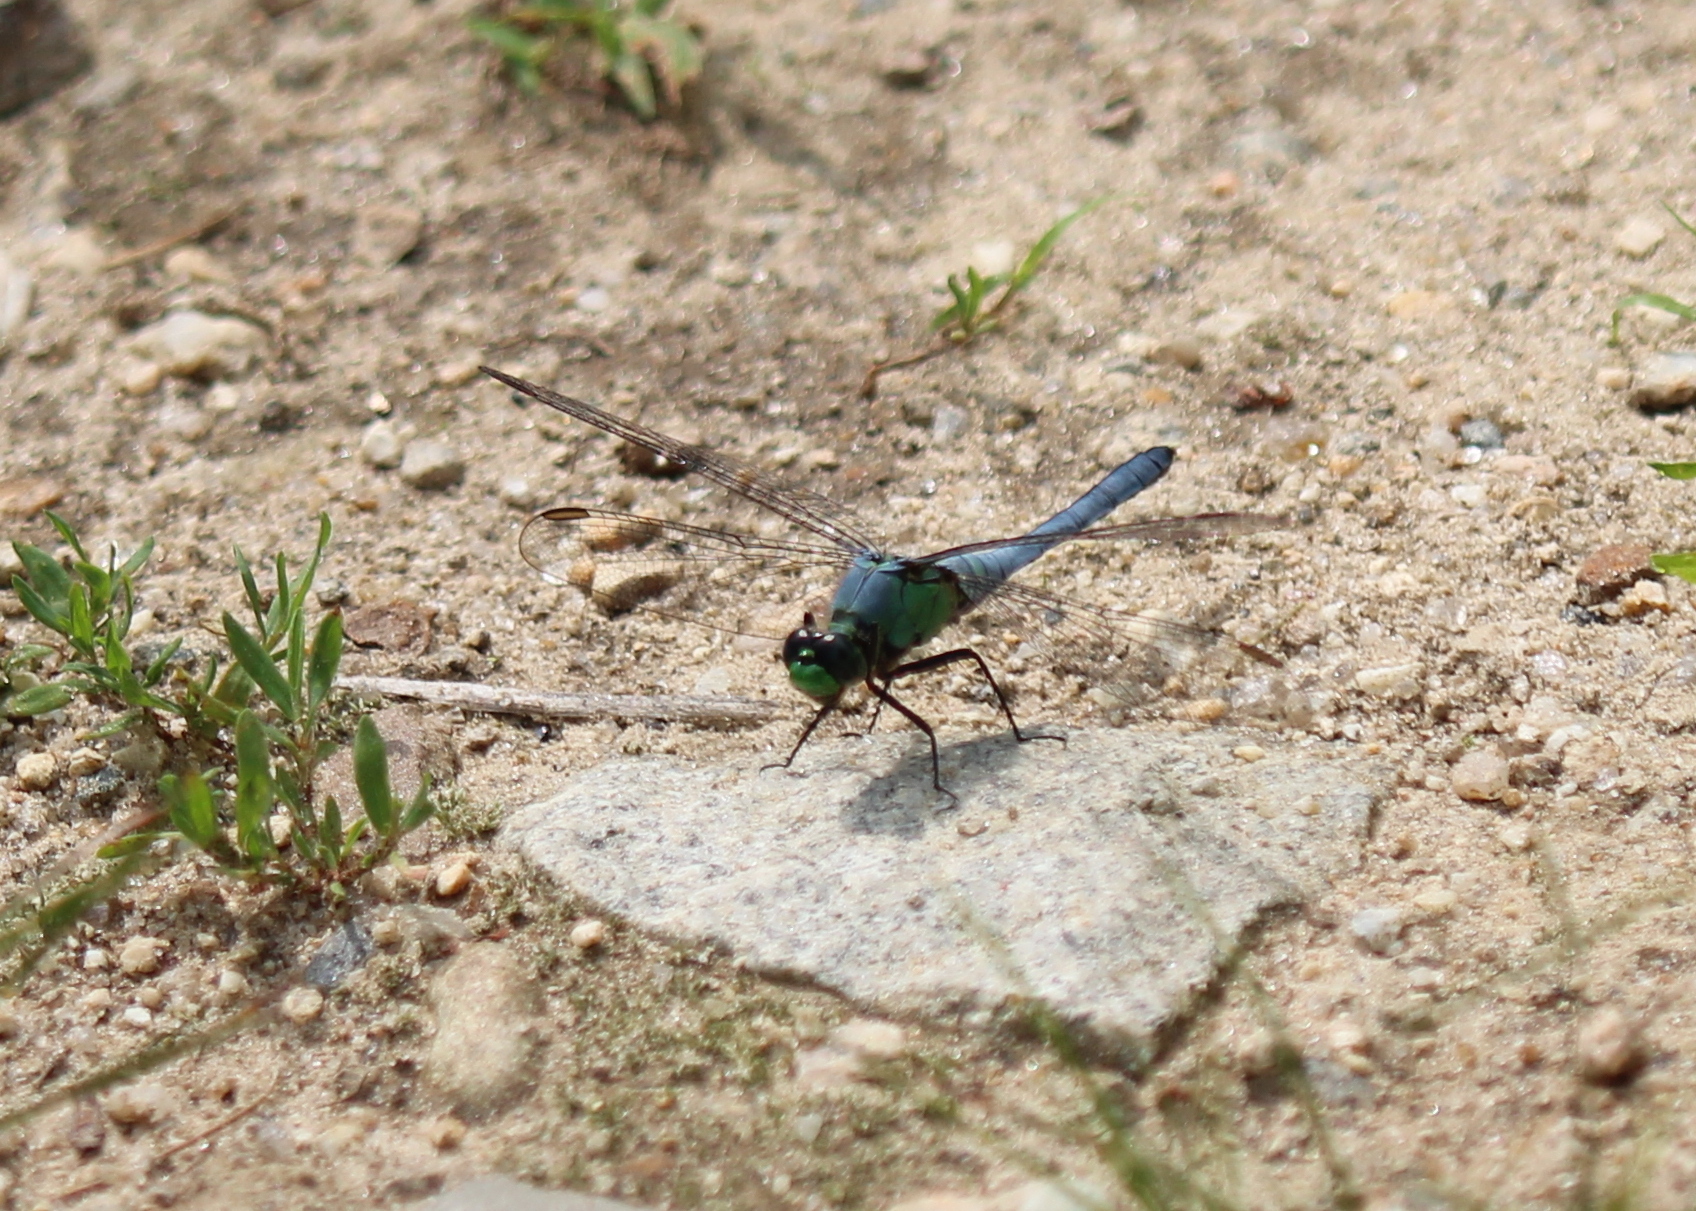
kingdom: Animalia
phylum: Arthropoda
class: Insecta
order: Odonata
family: Libellulidae
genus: Erythemis
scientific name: Erythemis simplicicollis
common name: Eastern pondhawk
